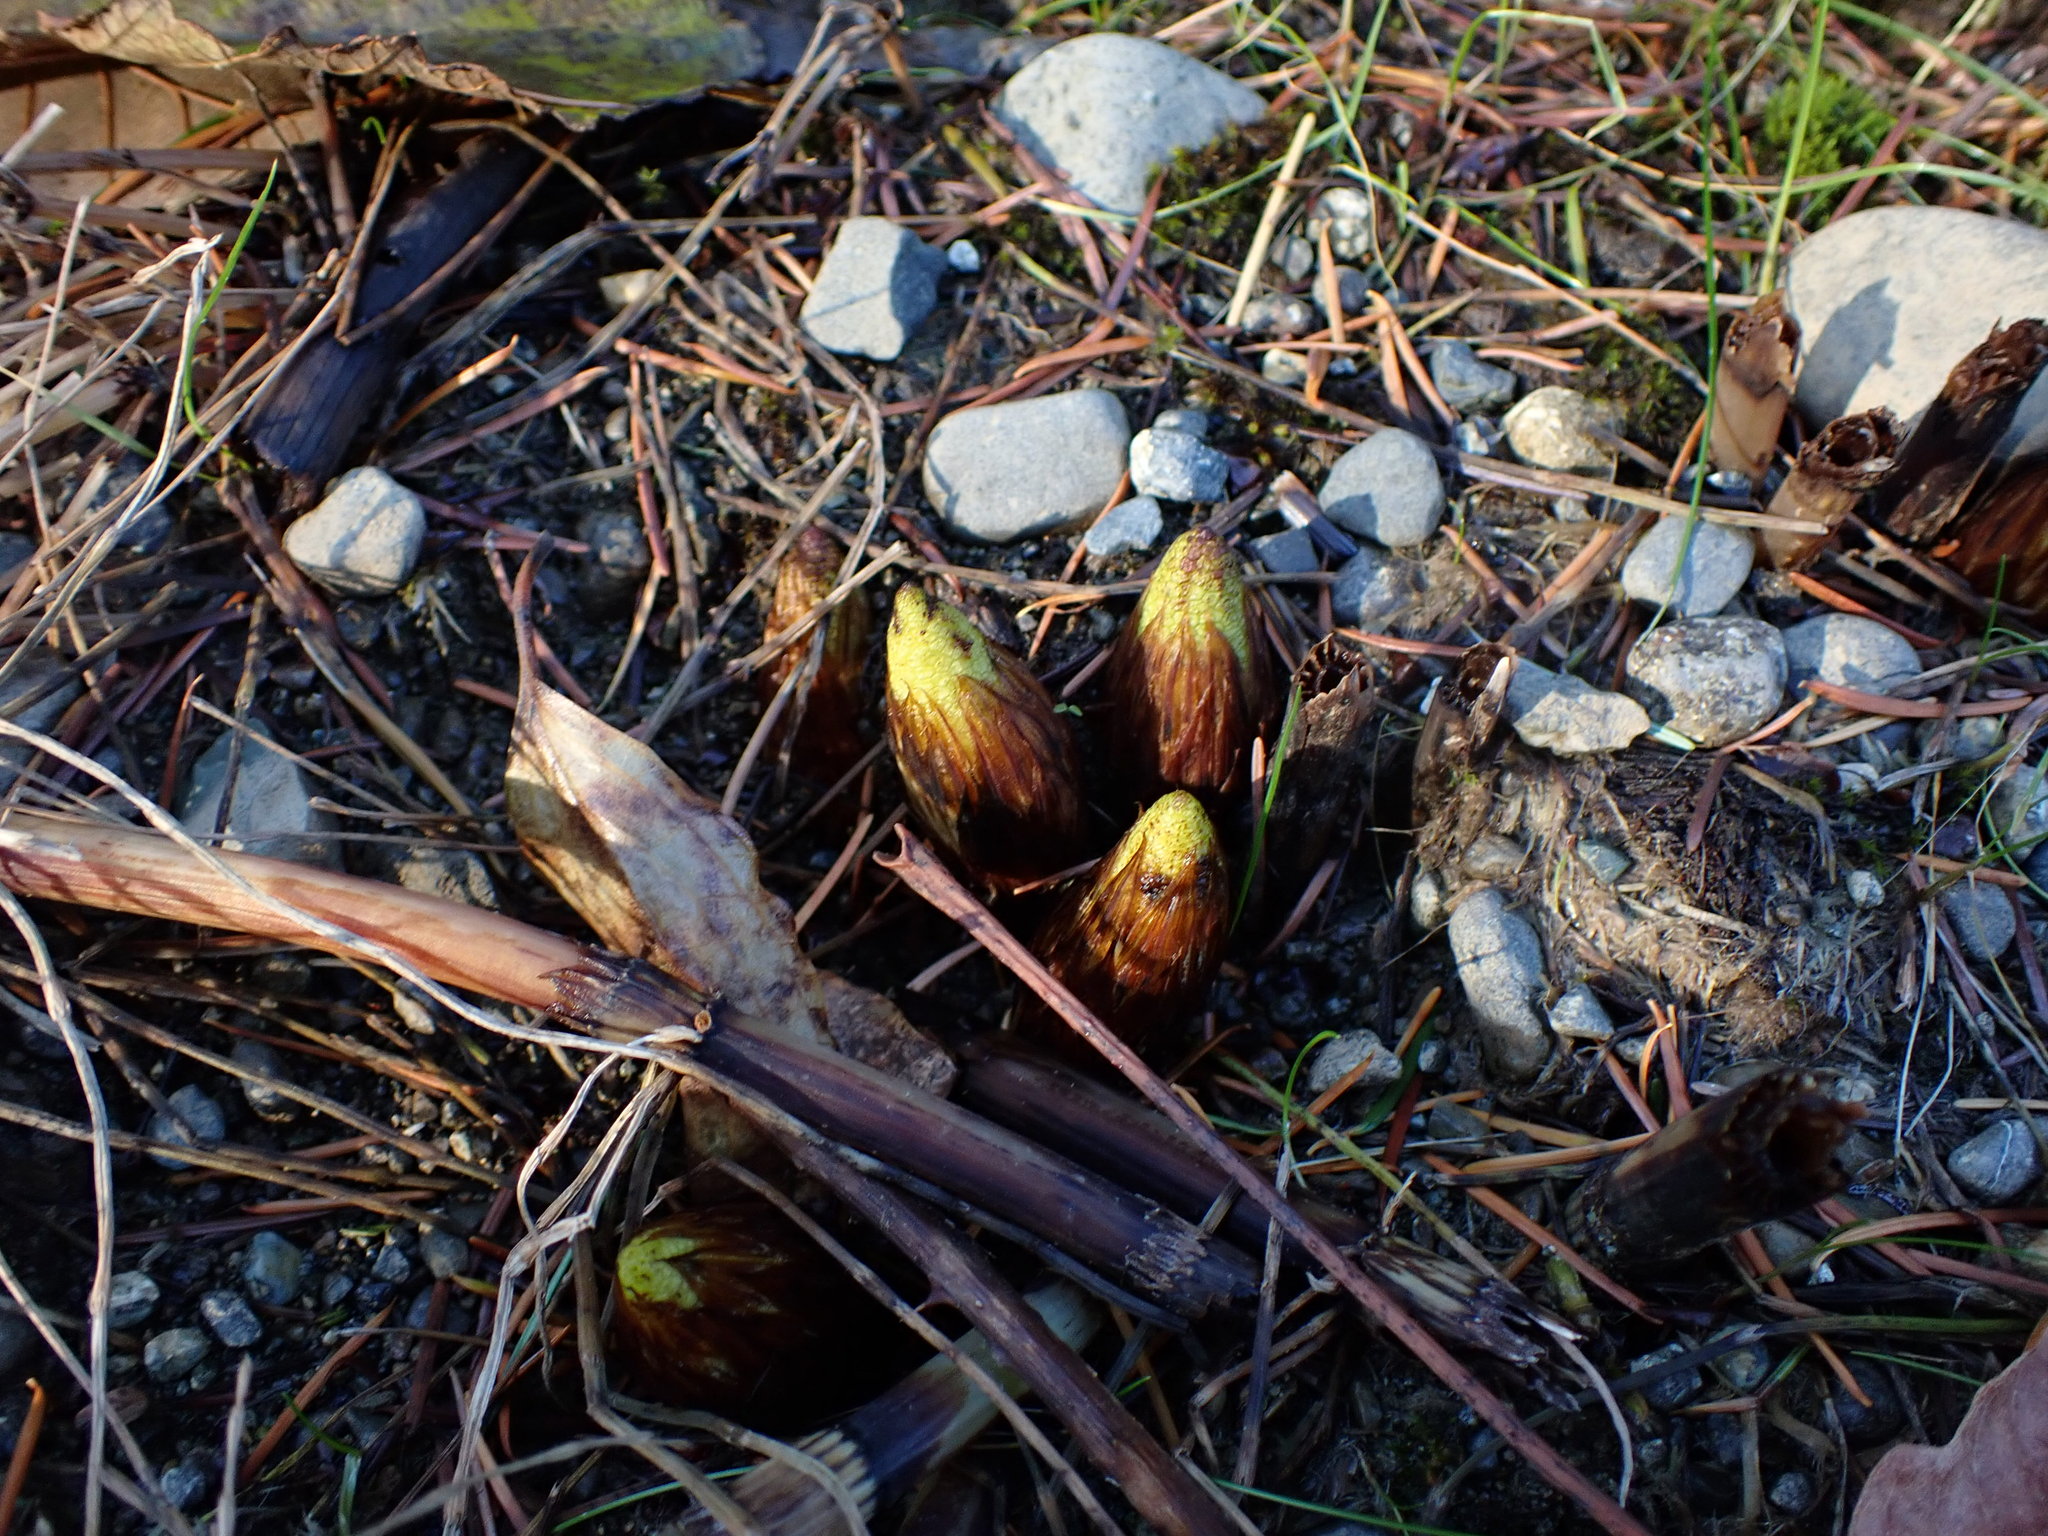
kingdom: Plantae
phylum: Tracheophyta
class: Polypodiopsida
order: Equisetales
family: Equisetaceae
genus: Equisetum
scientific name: Equisetum telmateia
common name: Great horsetail
